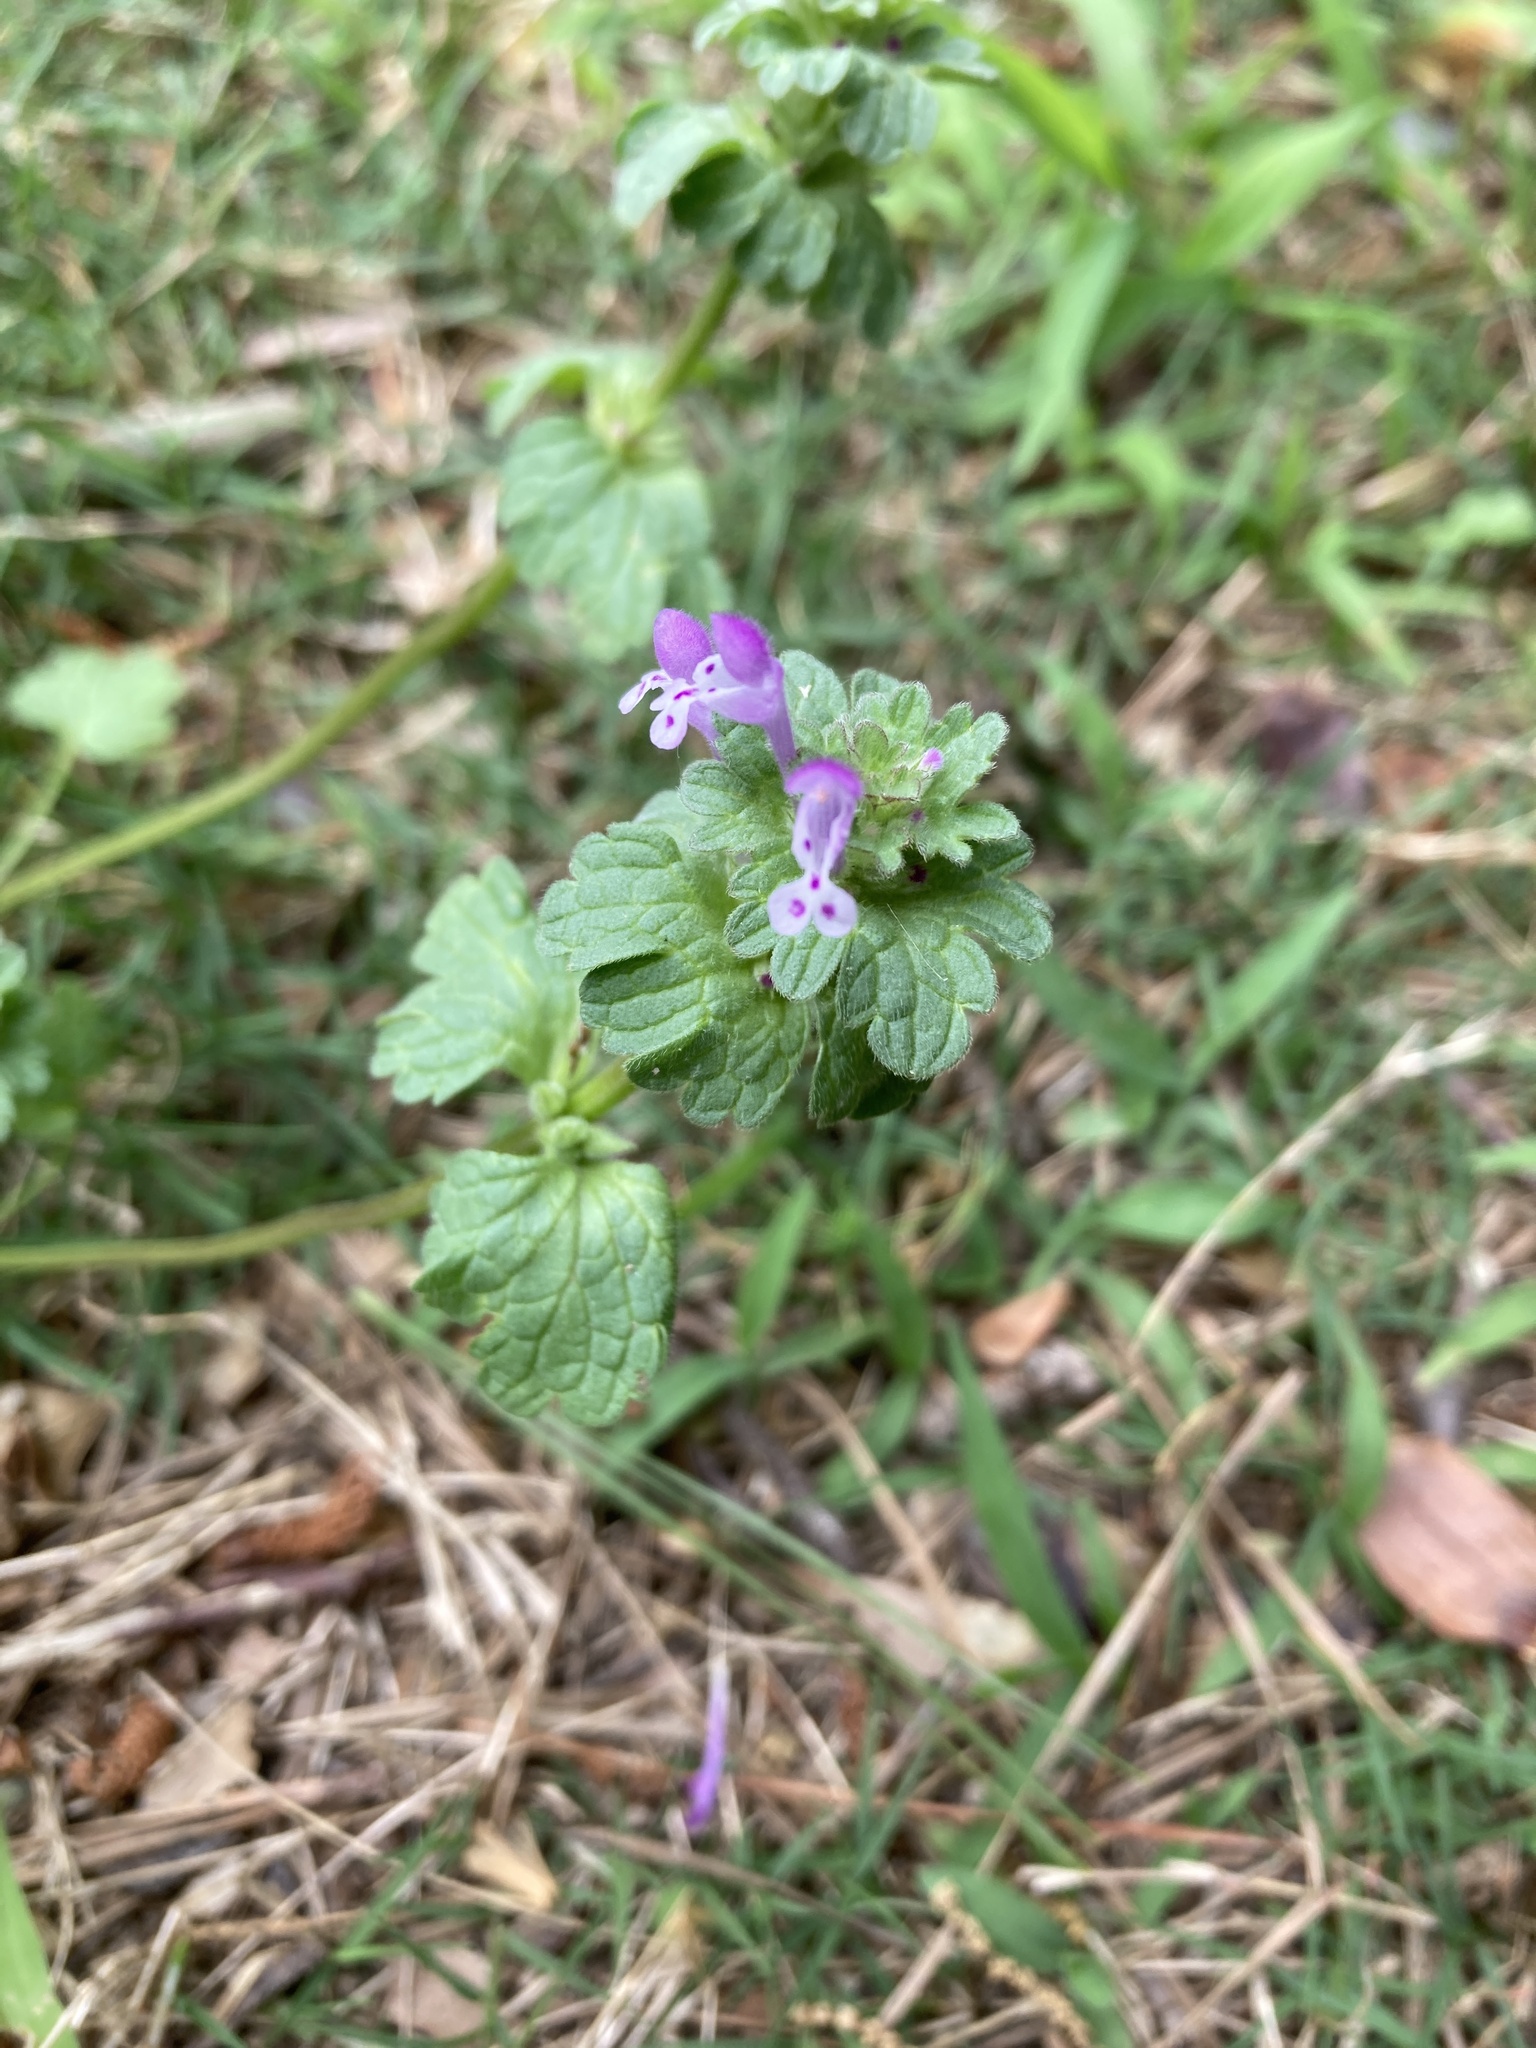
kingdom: Plantae
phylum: Tracheophyta
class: Magnoliopsida
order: Lamiales
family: Lamiaceae
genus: Lamium
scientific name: Lamium amplexicaule
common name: Henbit dead-nettle
